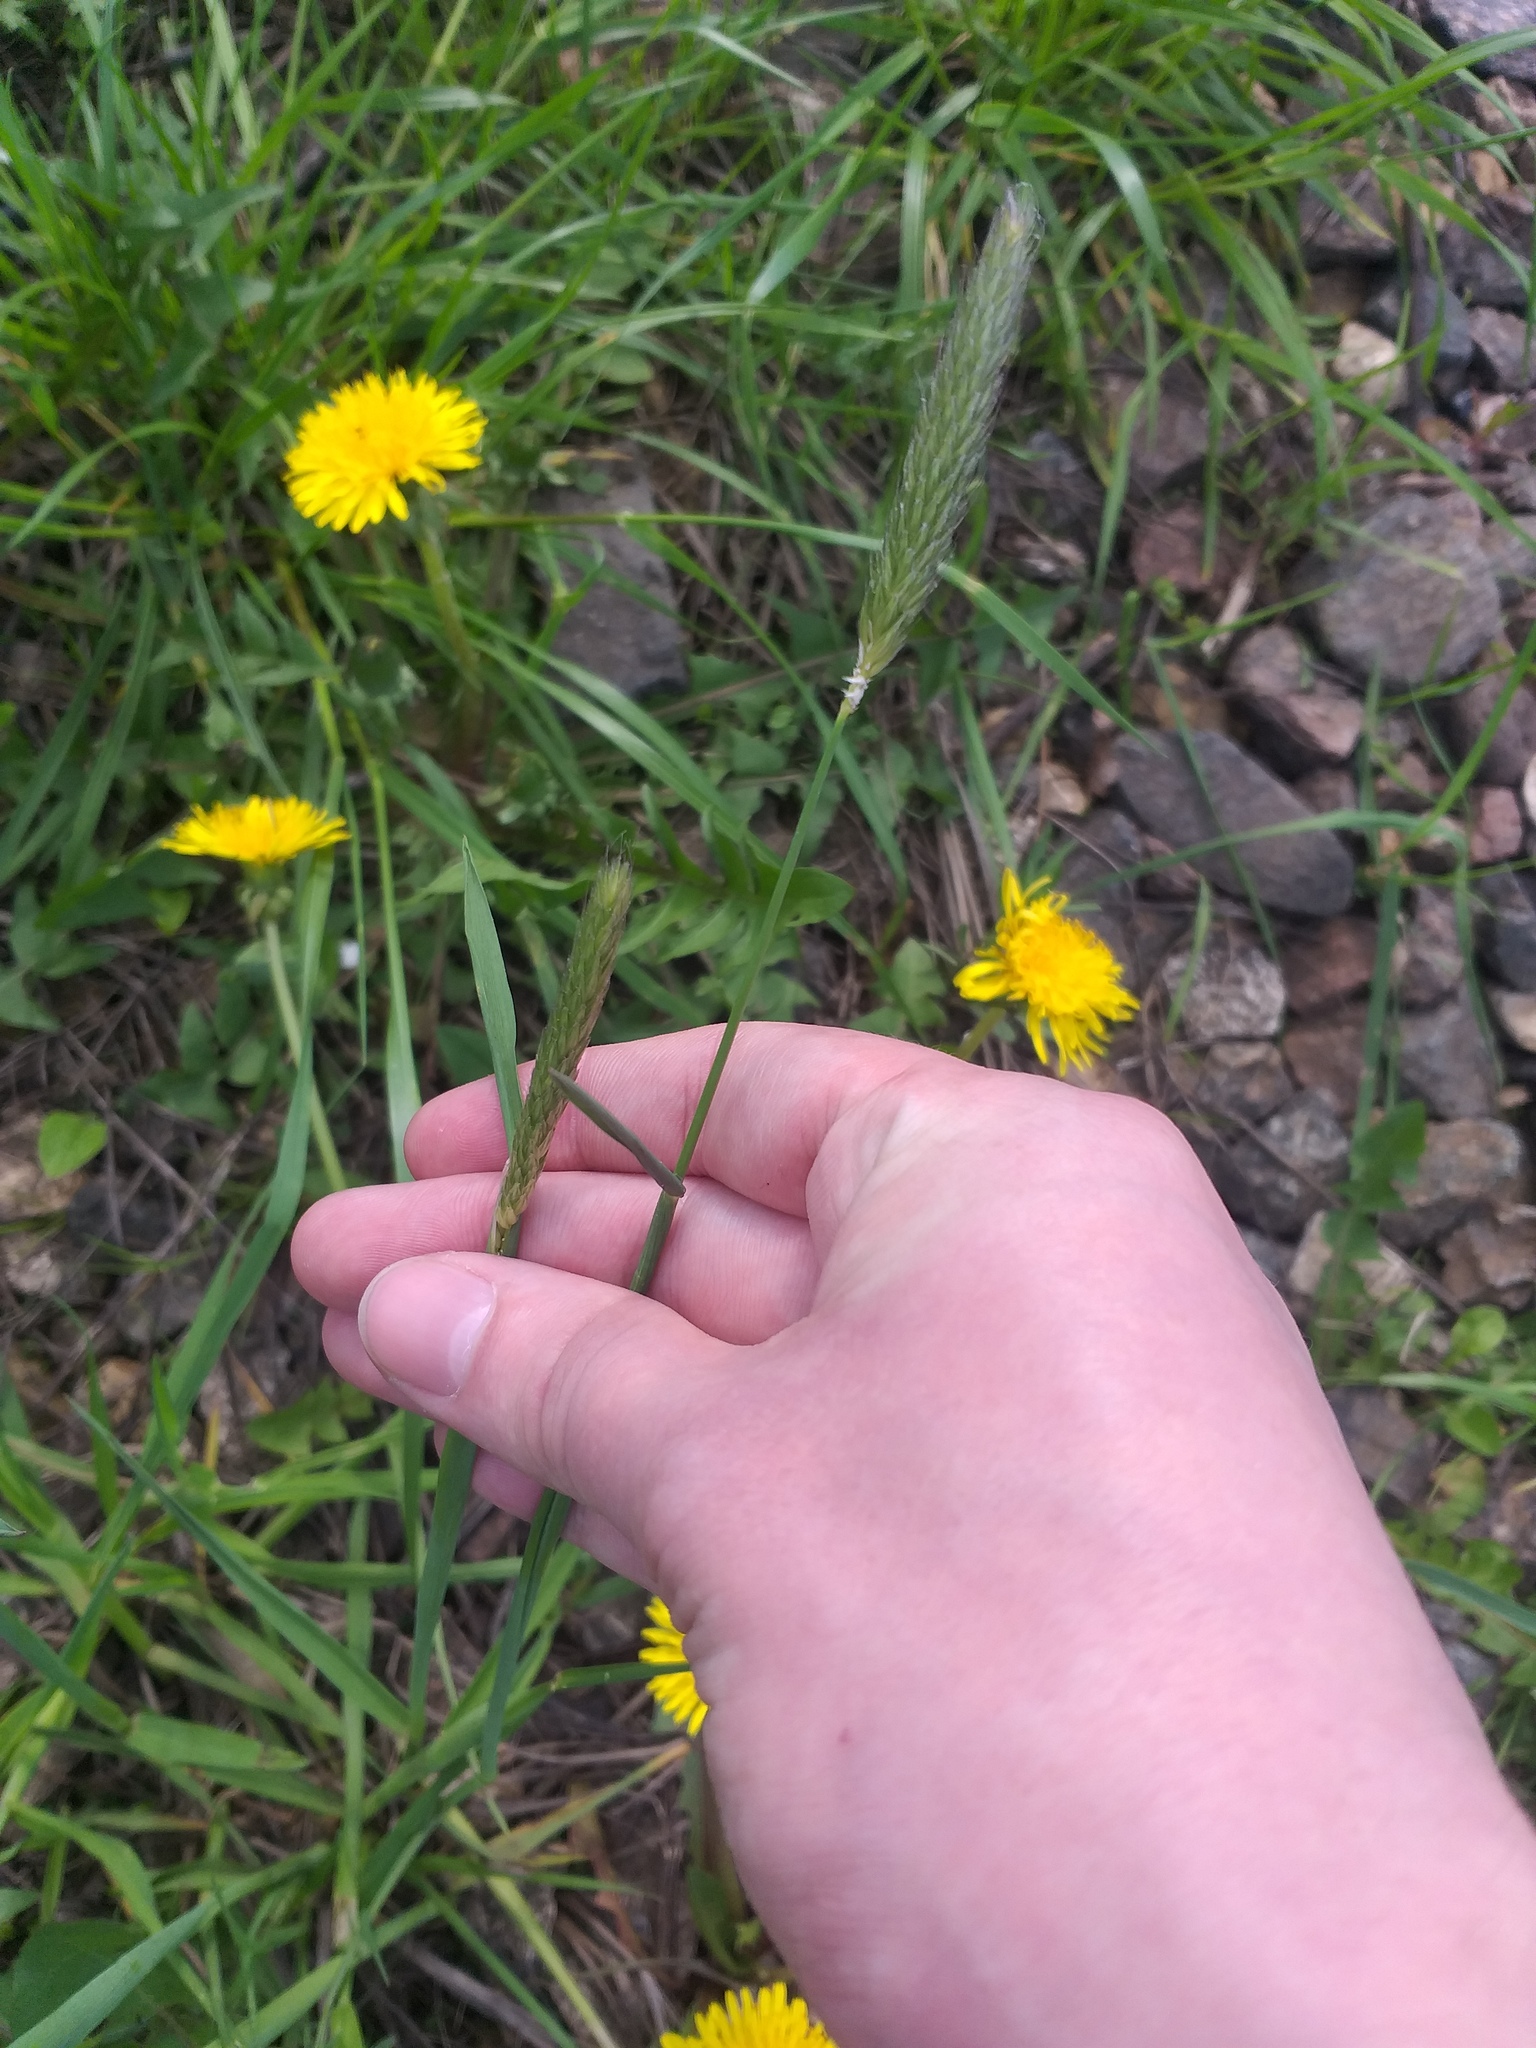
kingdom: Plantae
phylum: Tracheophyta
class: Liliopsida
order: Poales
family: Poaceae
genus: Alopecurus
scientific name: Alopecurus pratensis
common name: Meadow foxtail
